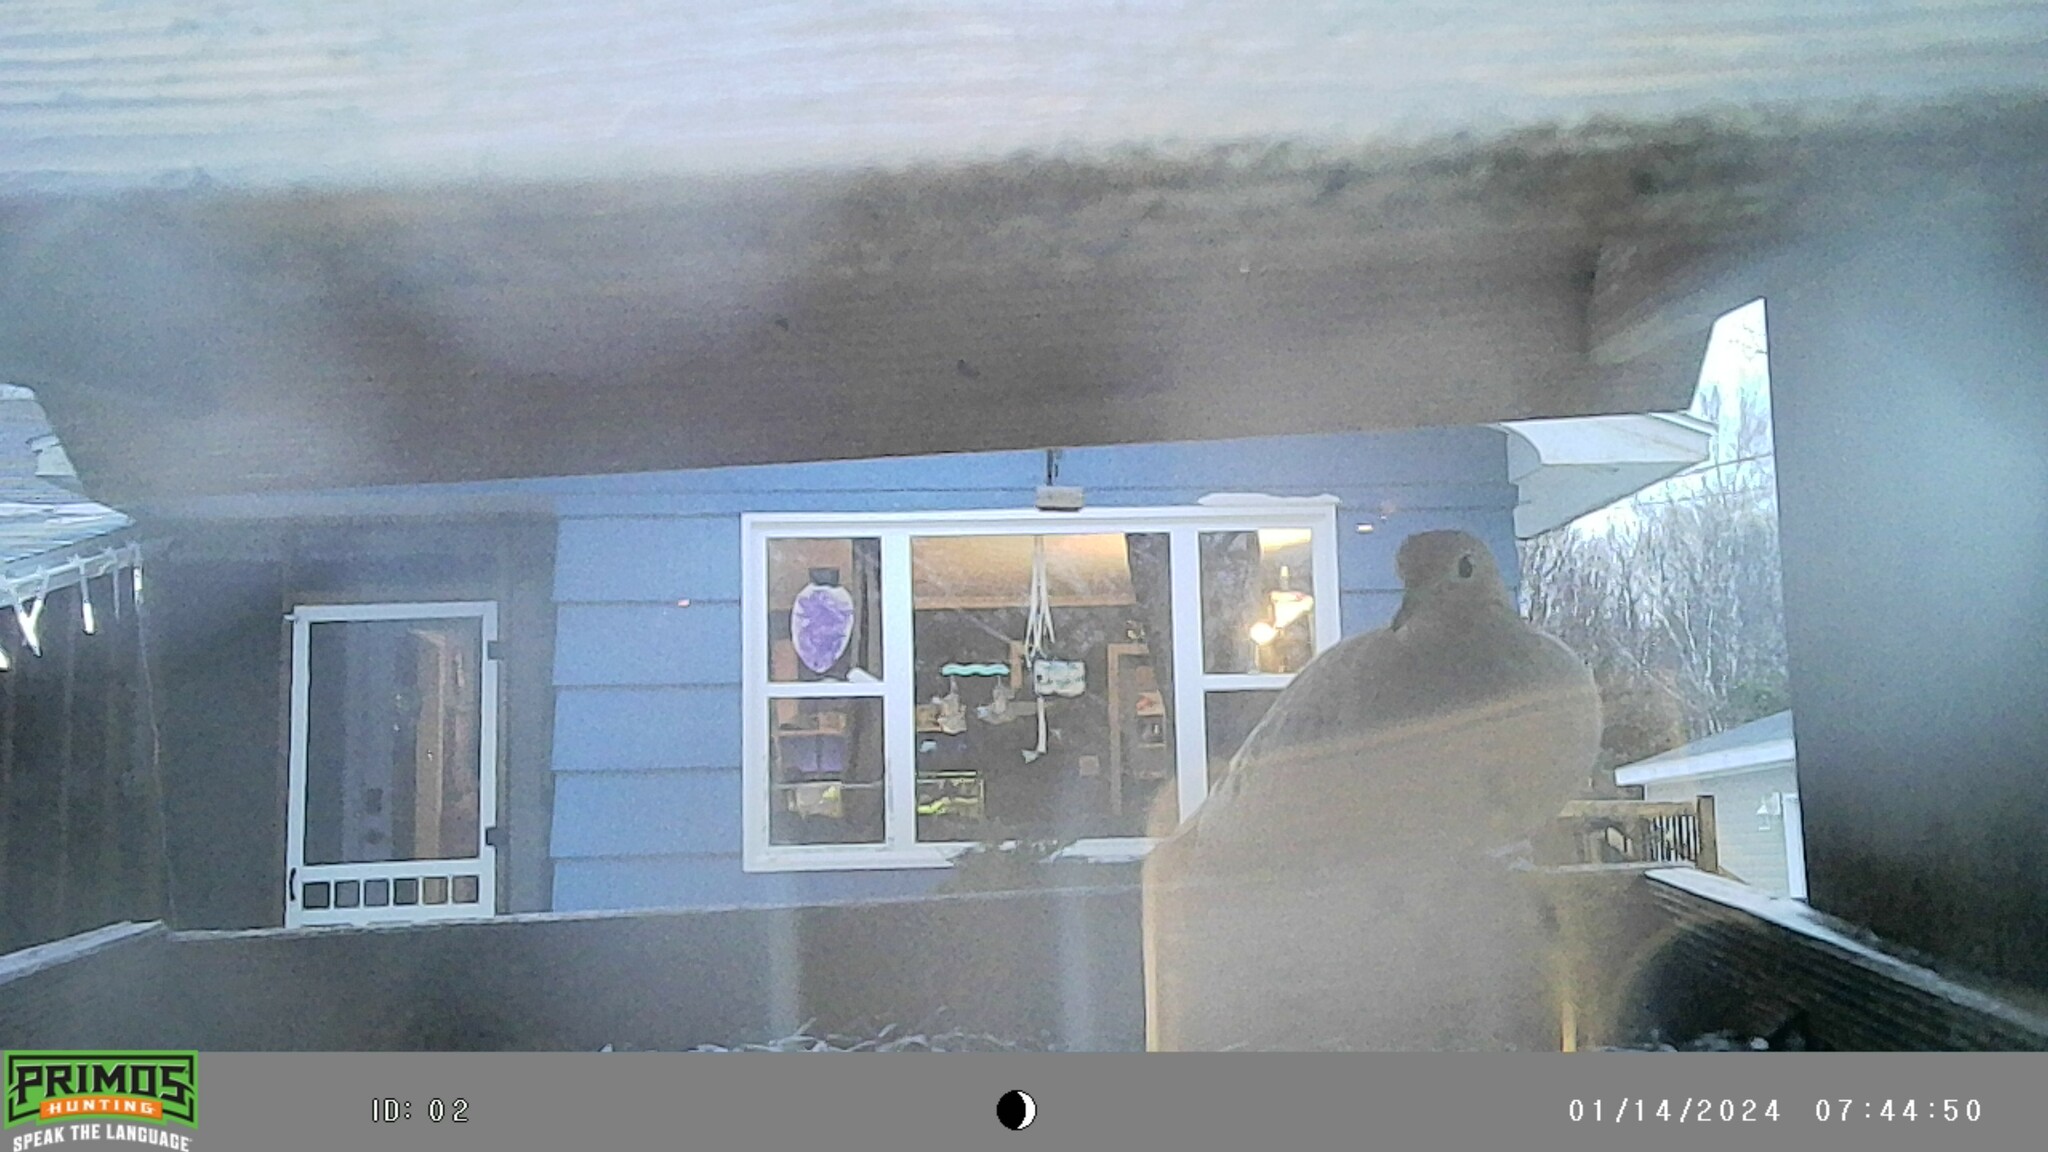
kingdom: Animalia
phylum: Chordata
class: Aves
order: Columbiformes
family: Columbidae
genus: Zenaida
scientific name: Zenaida macroura
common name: Mourning dove
